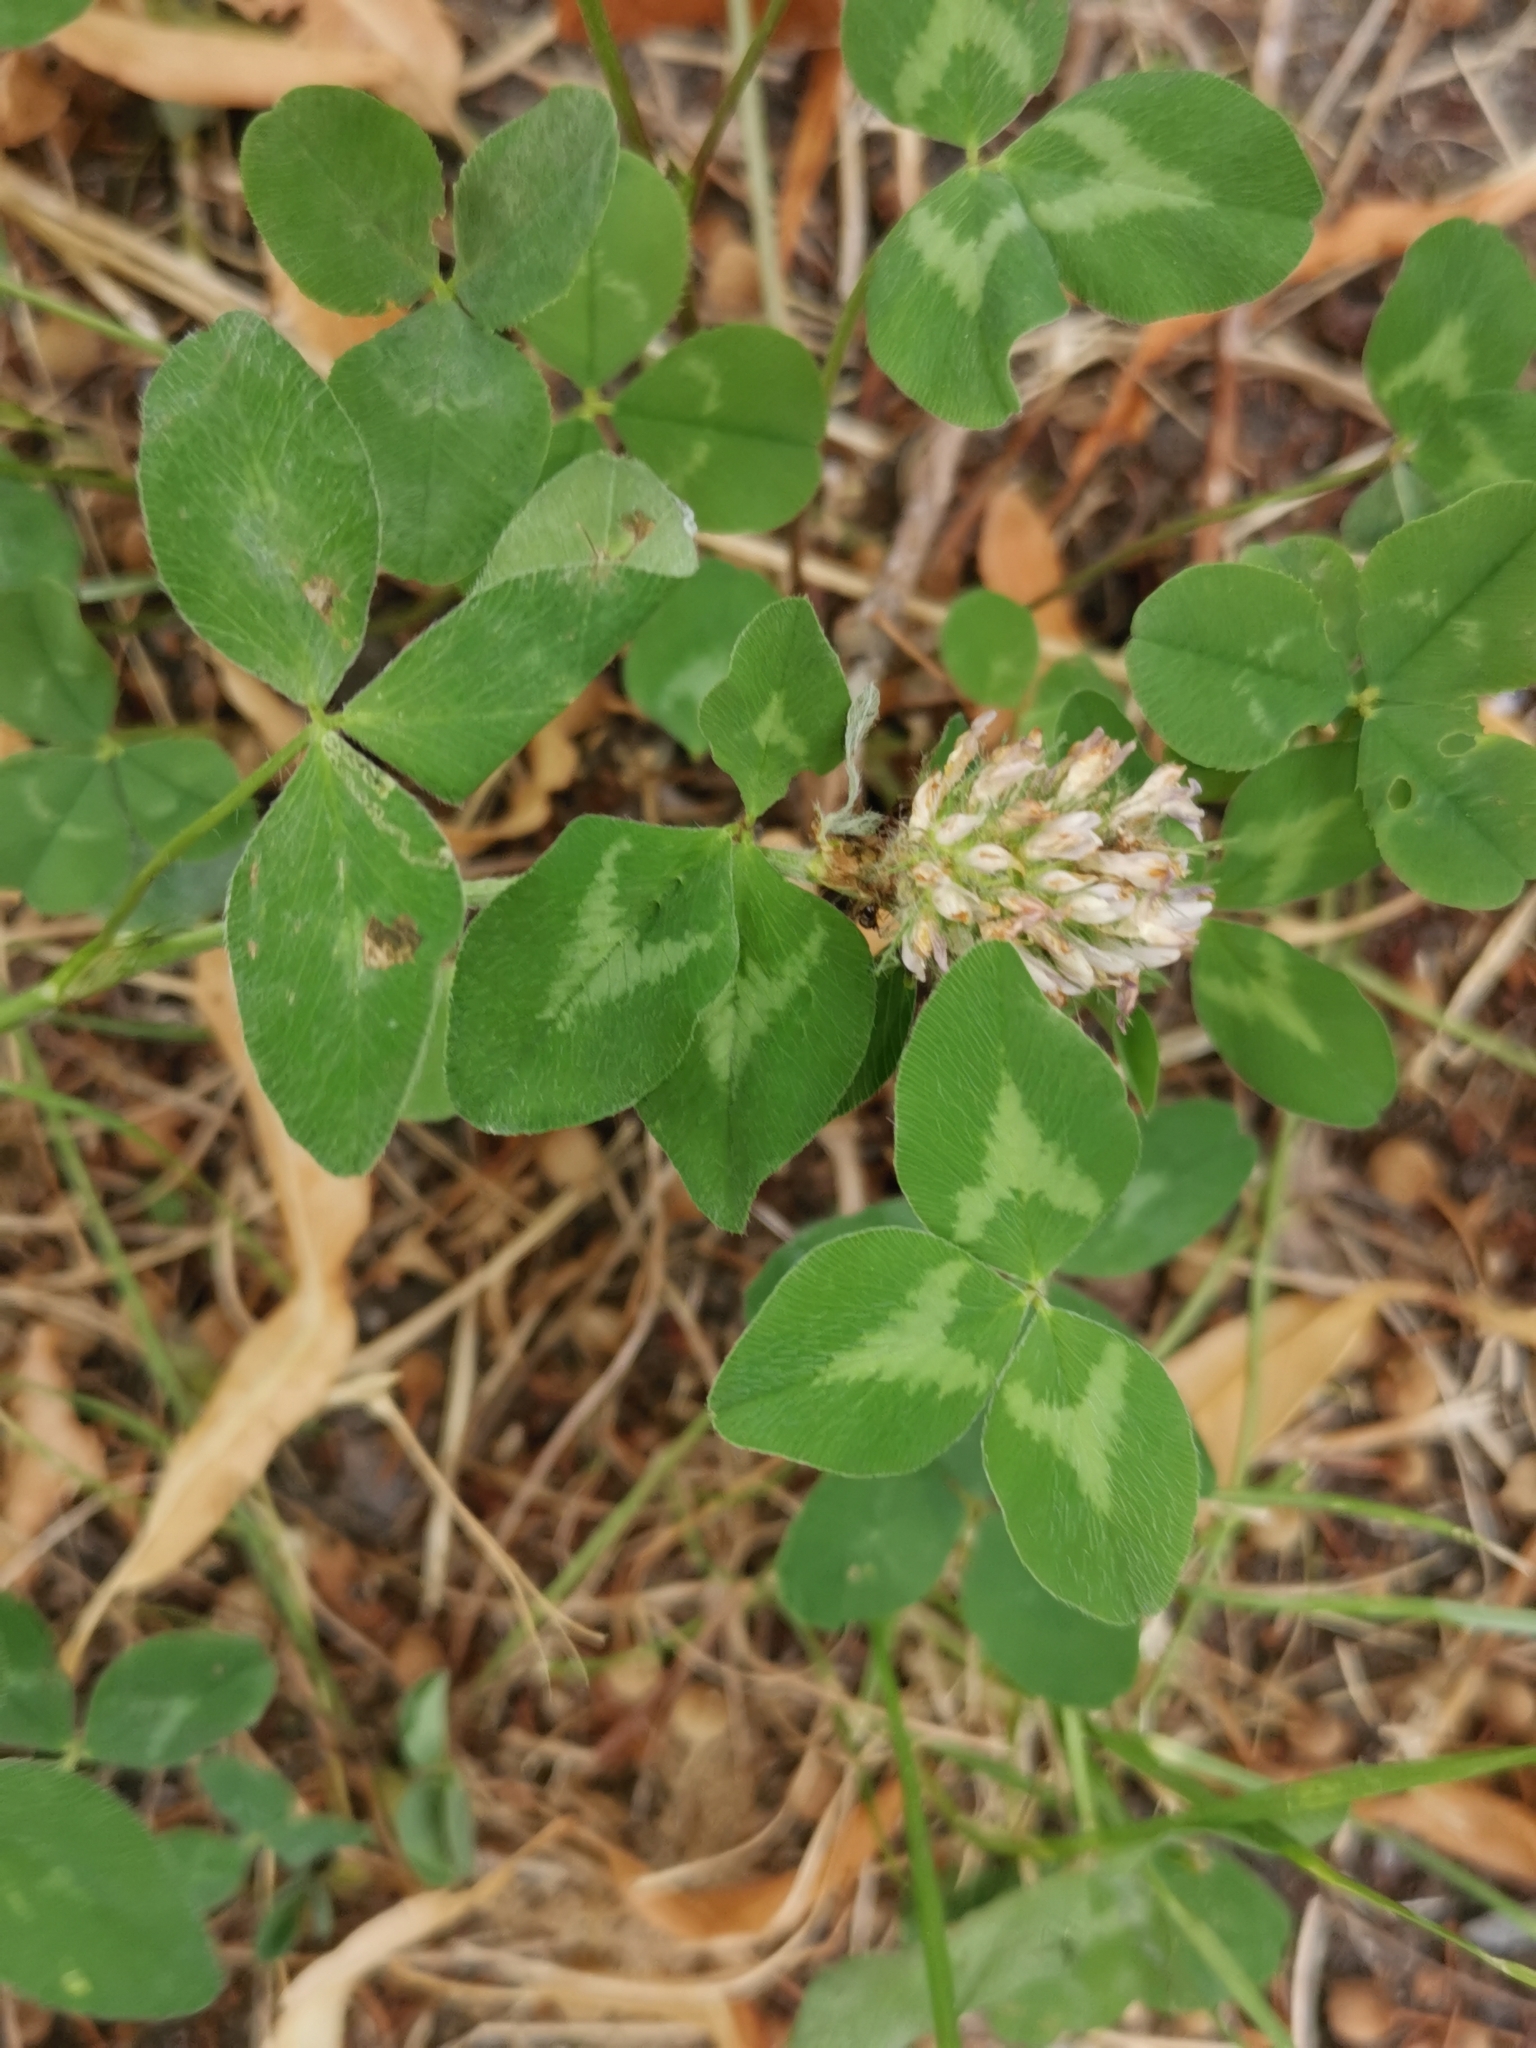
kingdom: Plantae
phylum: Tracheophyta
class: Magnoliopsida
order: Fabales
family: Fabaceae
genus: Trifolium
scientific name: Trifolium pratense
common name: Red clover
